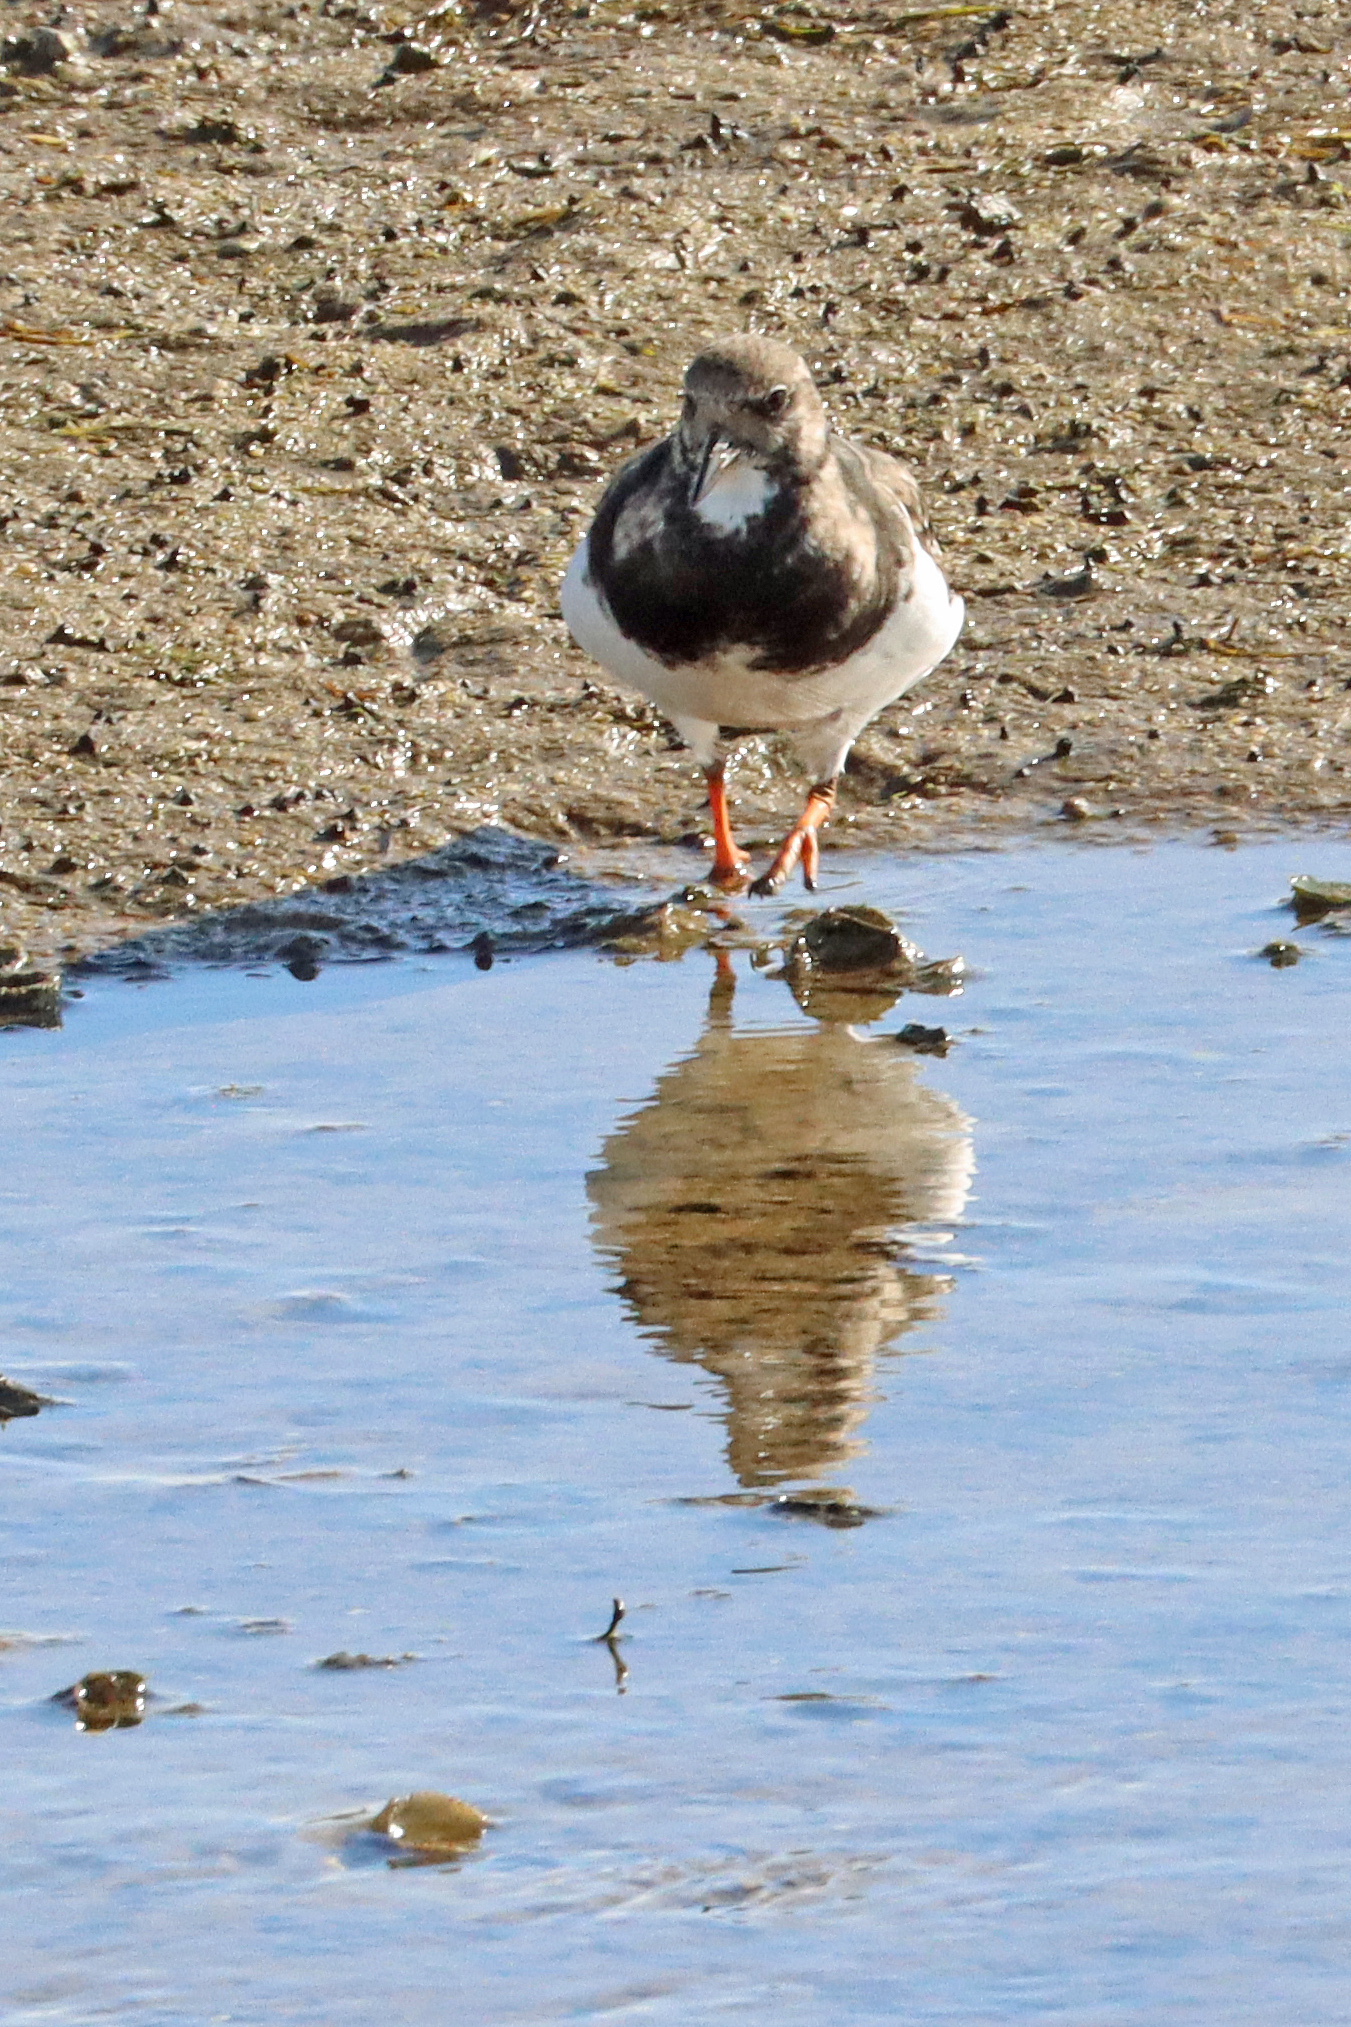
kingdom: Animalia
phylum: Chordata
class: Aves
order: Charadriiformes
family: Scolopacidae
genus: Arenaria
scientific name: Arenaria interpres
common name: Ruddy turnstone
